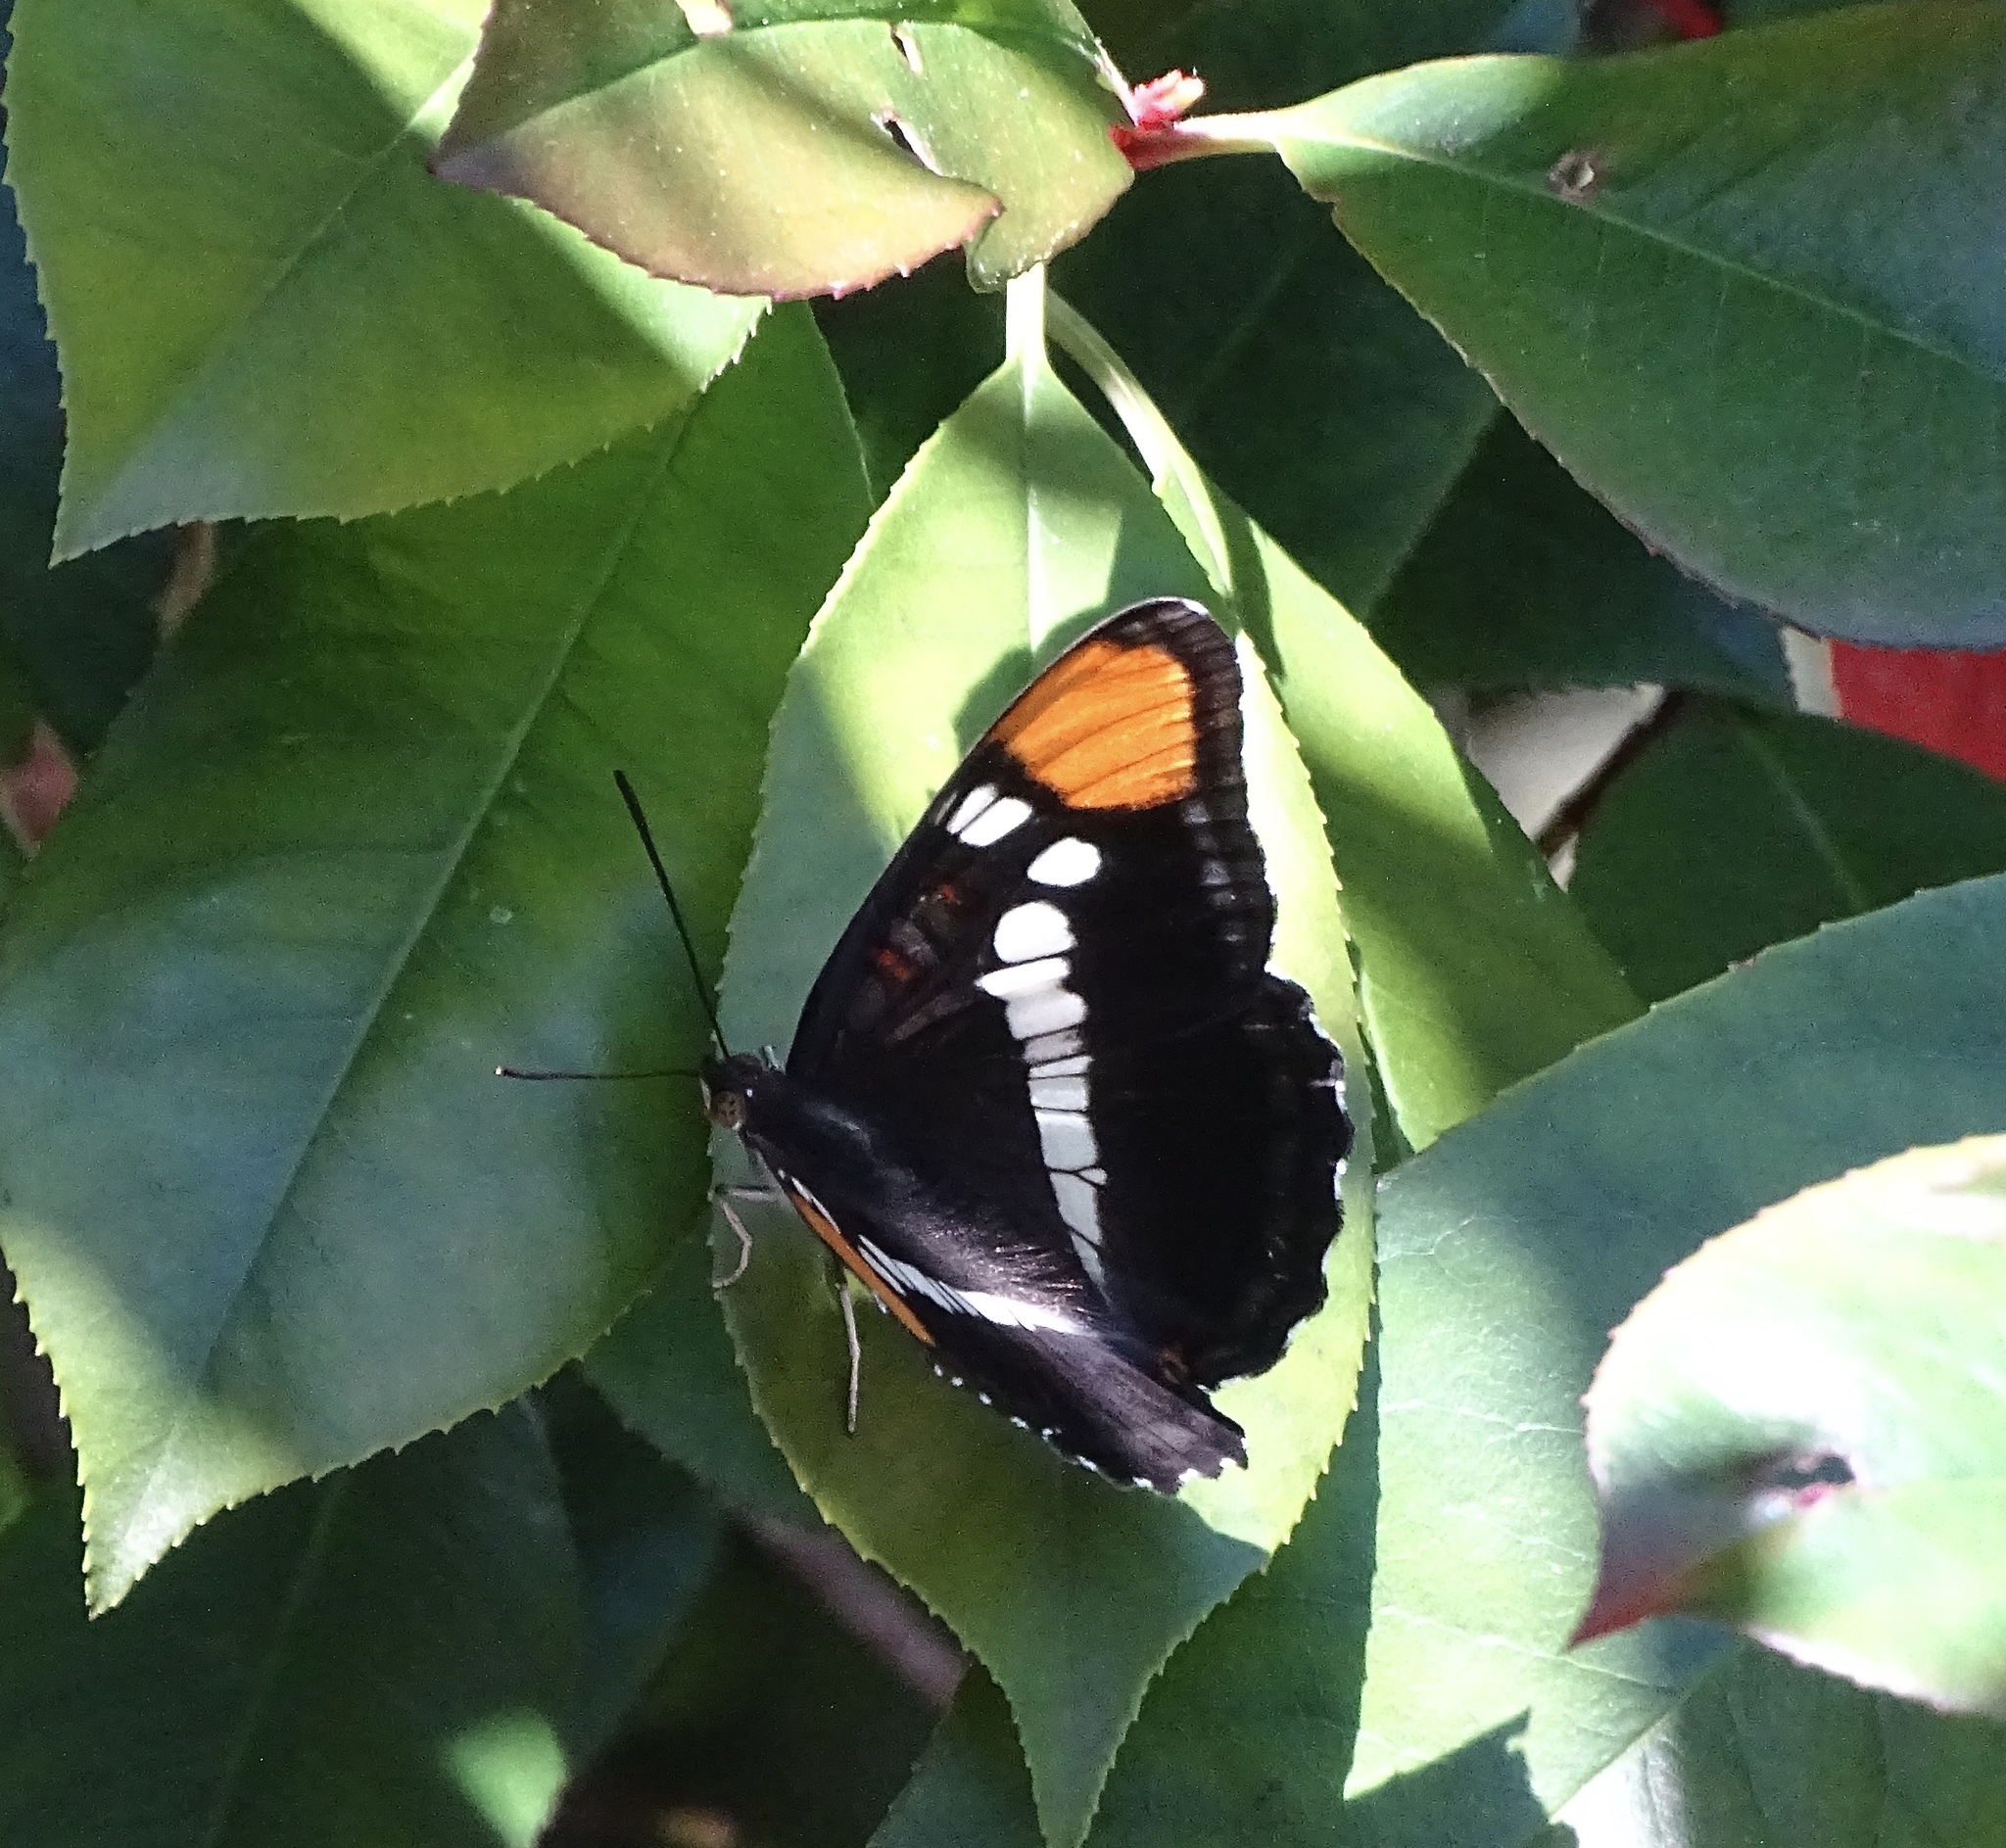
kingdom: Animalia
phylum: Arthropoda
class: Insecta
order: Lepidoptera
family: Nymphalidae
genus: Limenitis
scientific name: Limenitis bredowii
